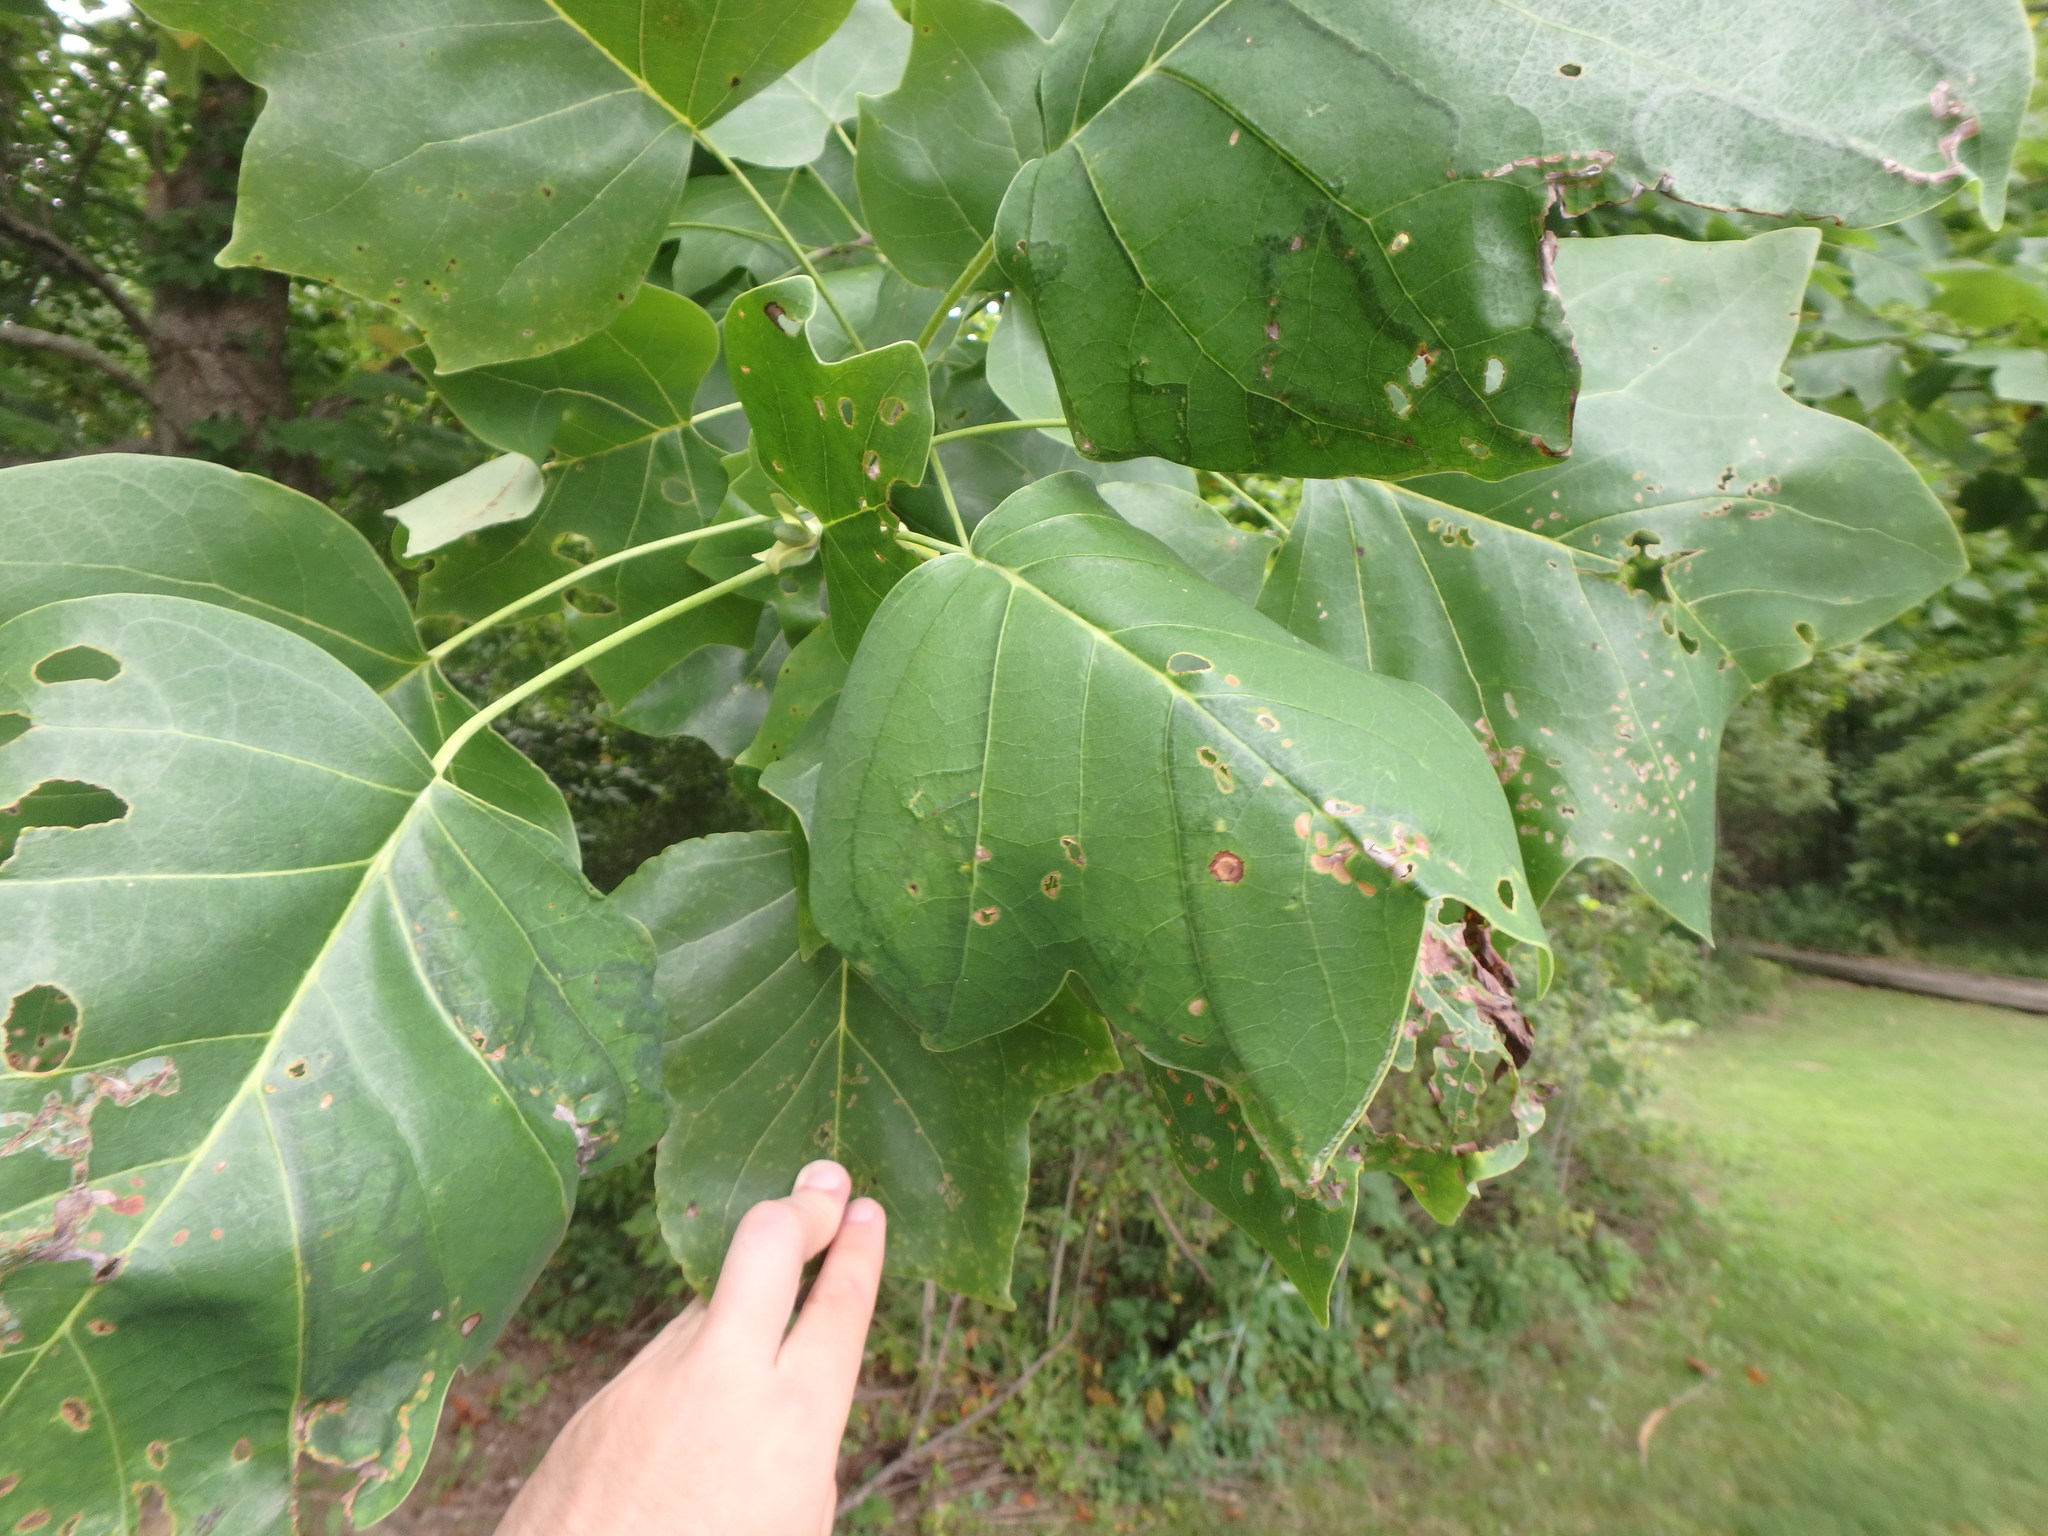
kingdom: Plantae
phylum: Tracheophyta
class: Magnoliopsida
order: Magnoliales
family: Magnoliaceae
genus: Liriodendron
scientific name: Liriodendron tulipifera
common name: Tulip tree
